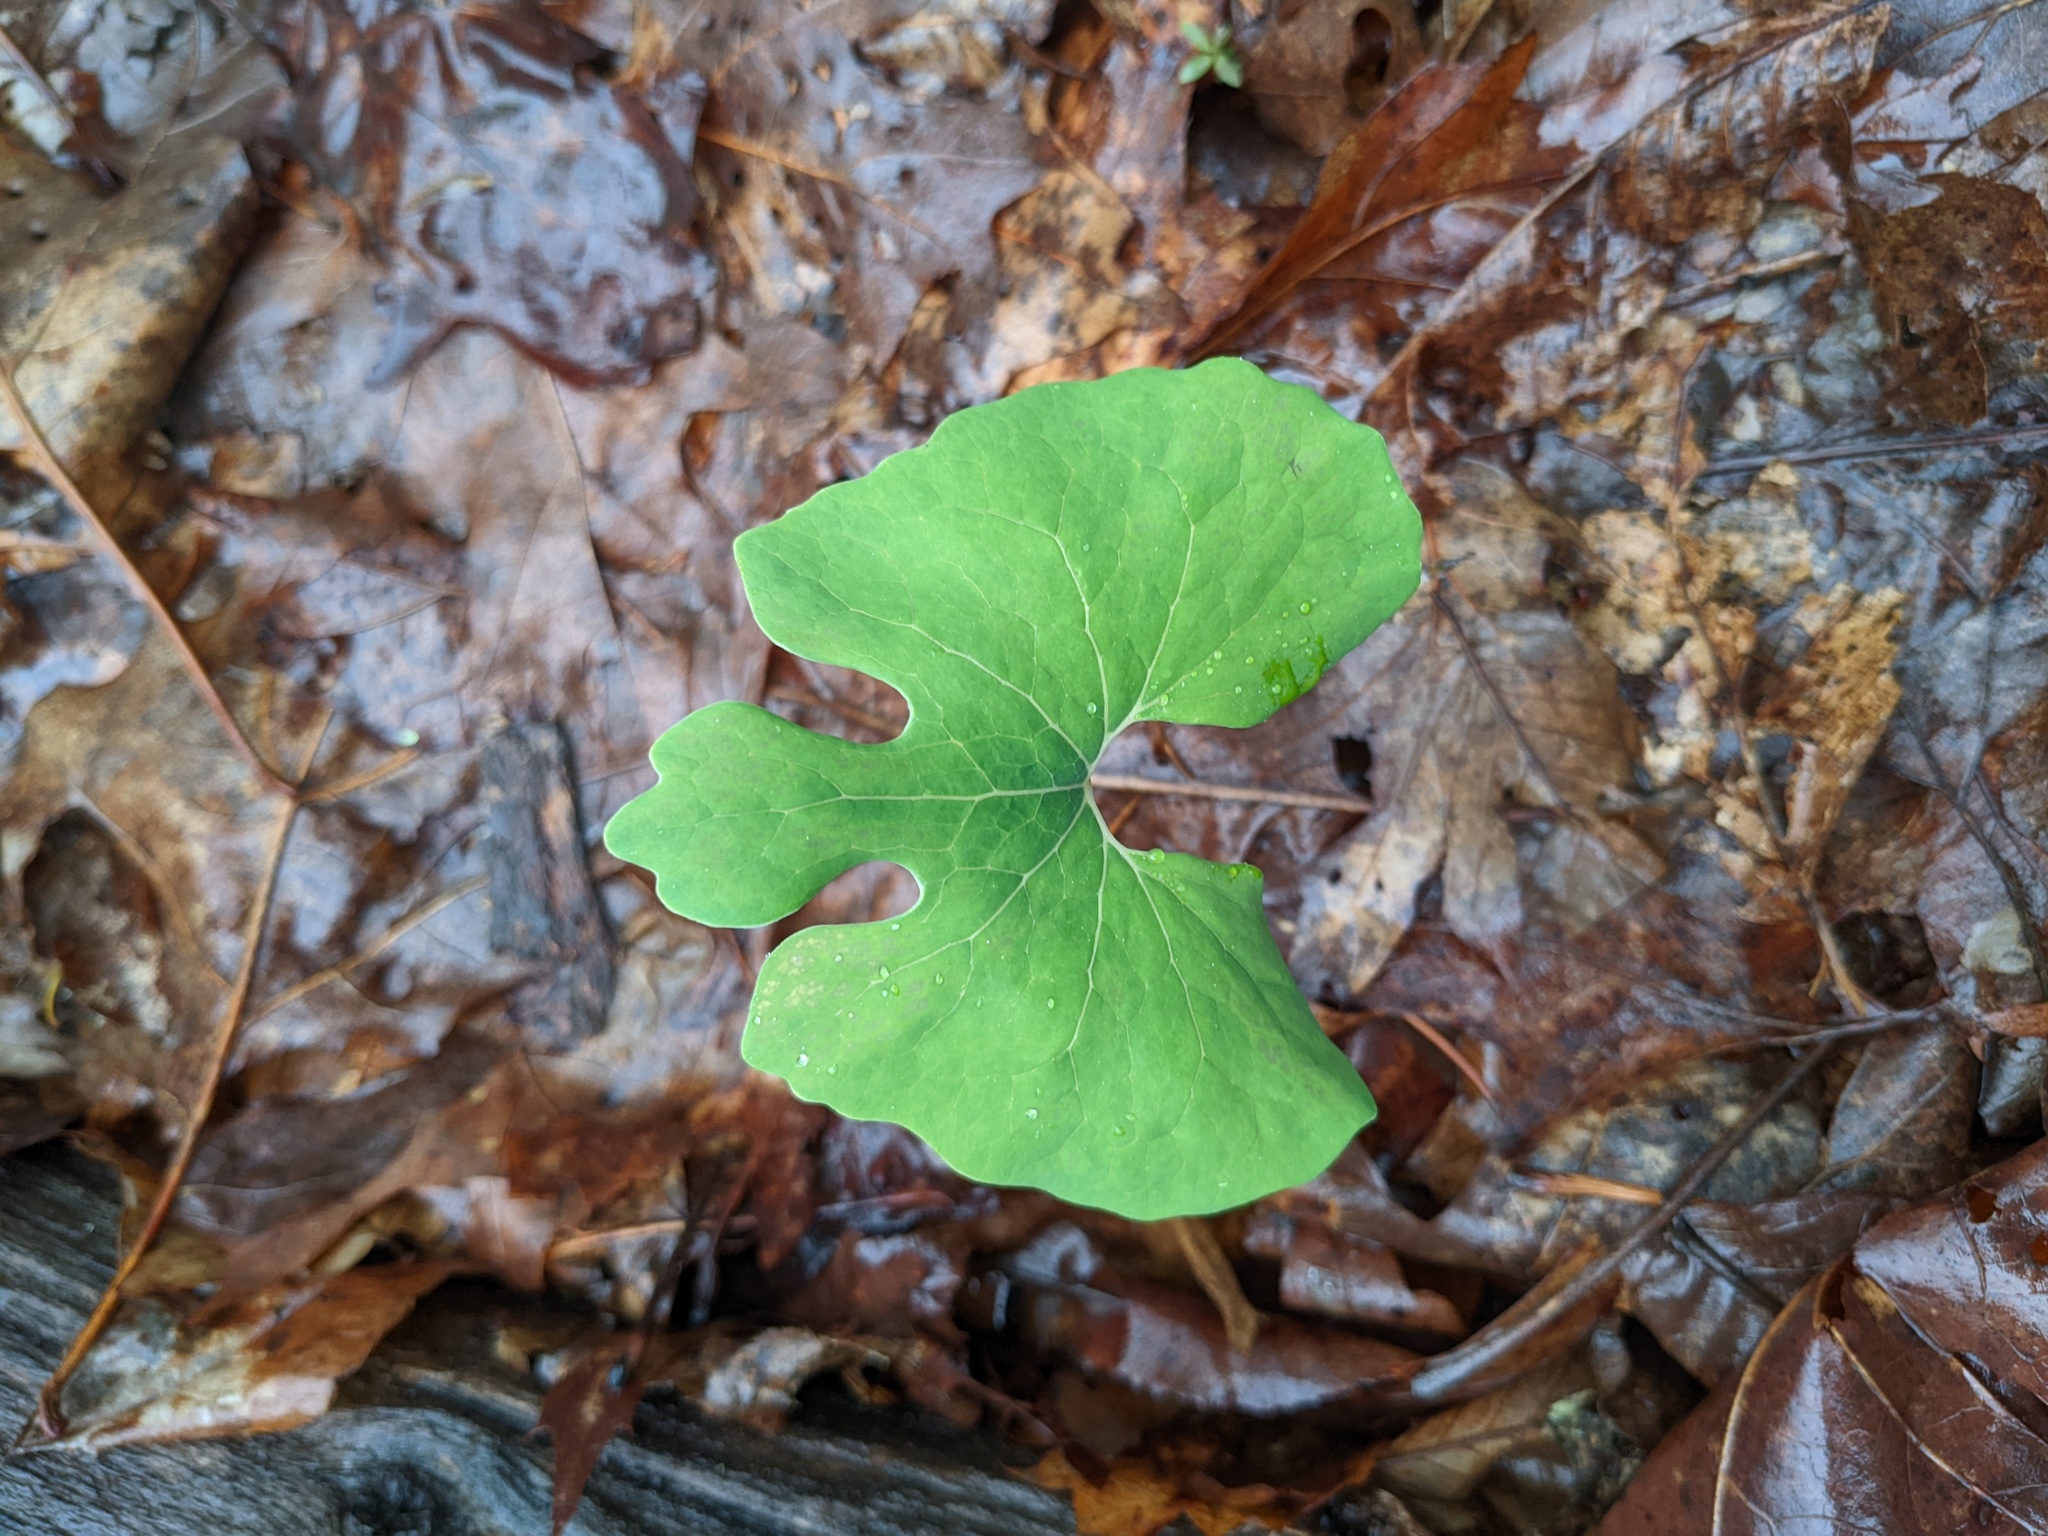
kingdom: Plantae
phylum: Tracheophyta
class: Magnoliopsida
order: Ranunculales
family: Papaveraceae
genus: Sanguinaria
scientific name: Sanguinaria canadensis
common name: Bloodroot
